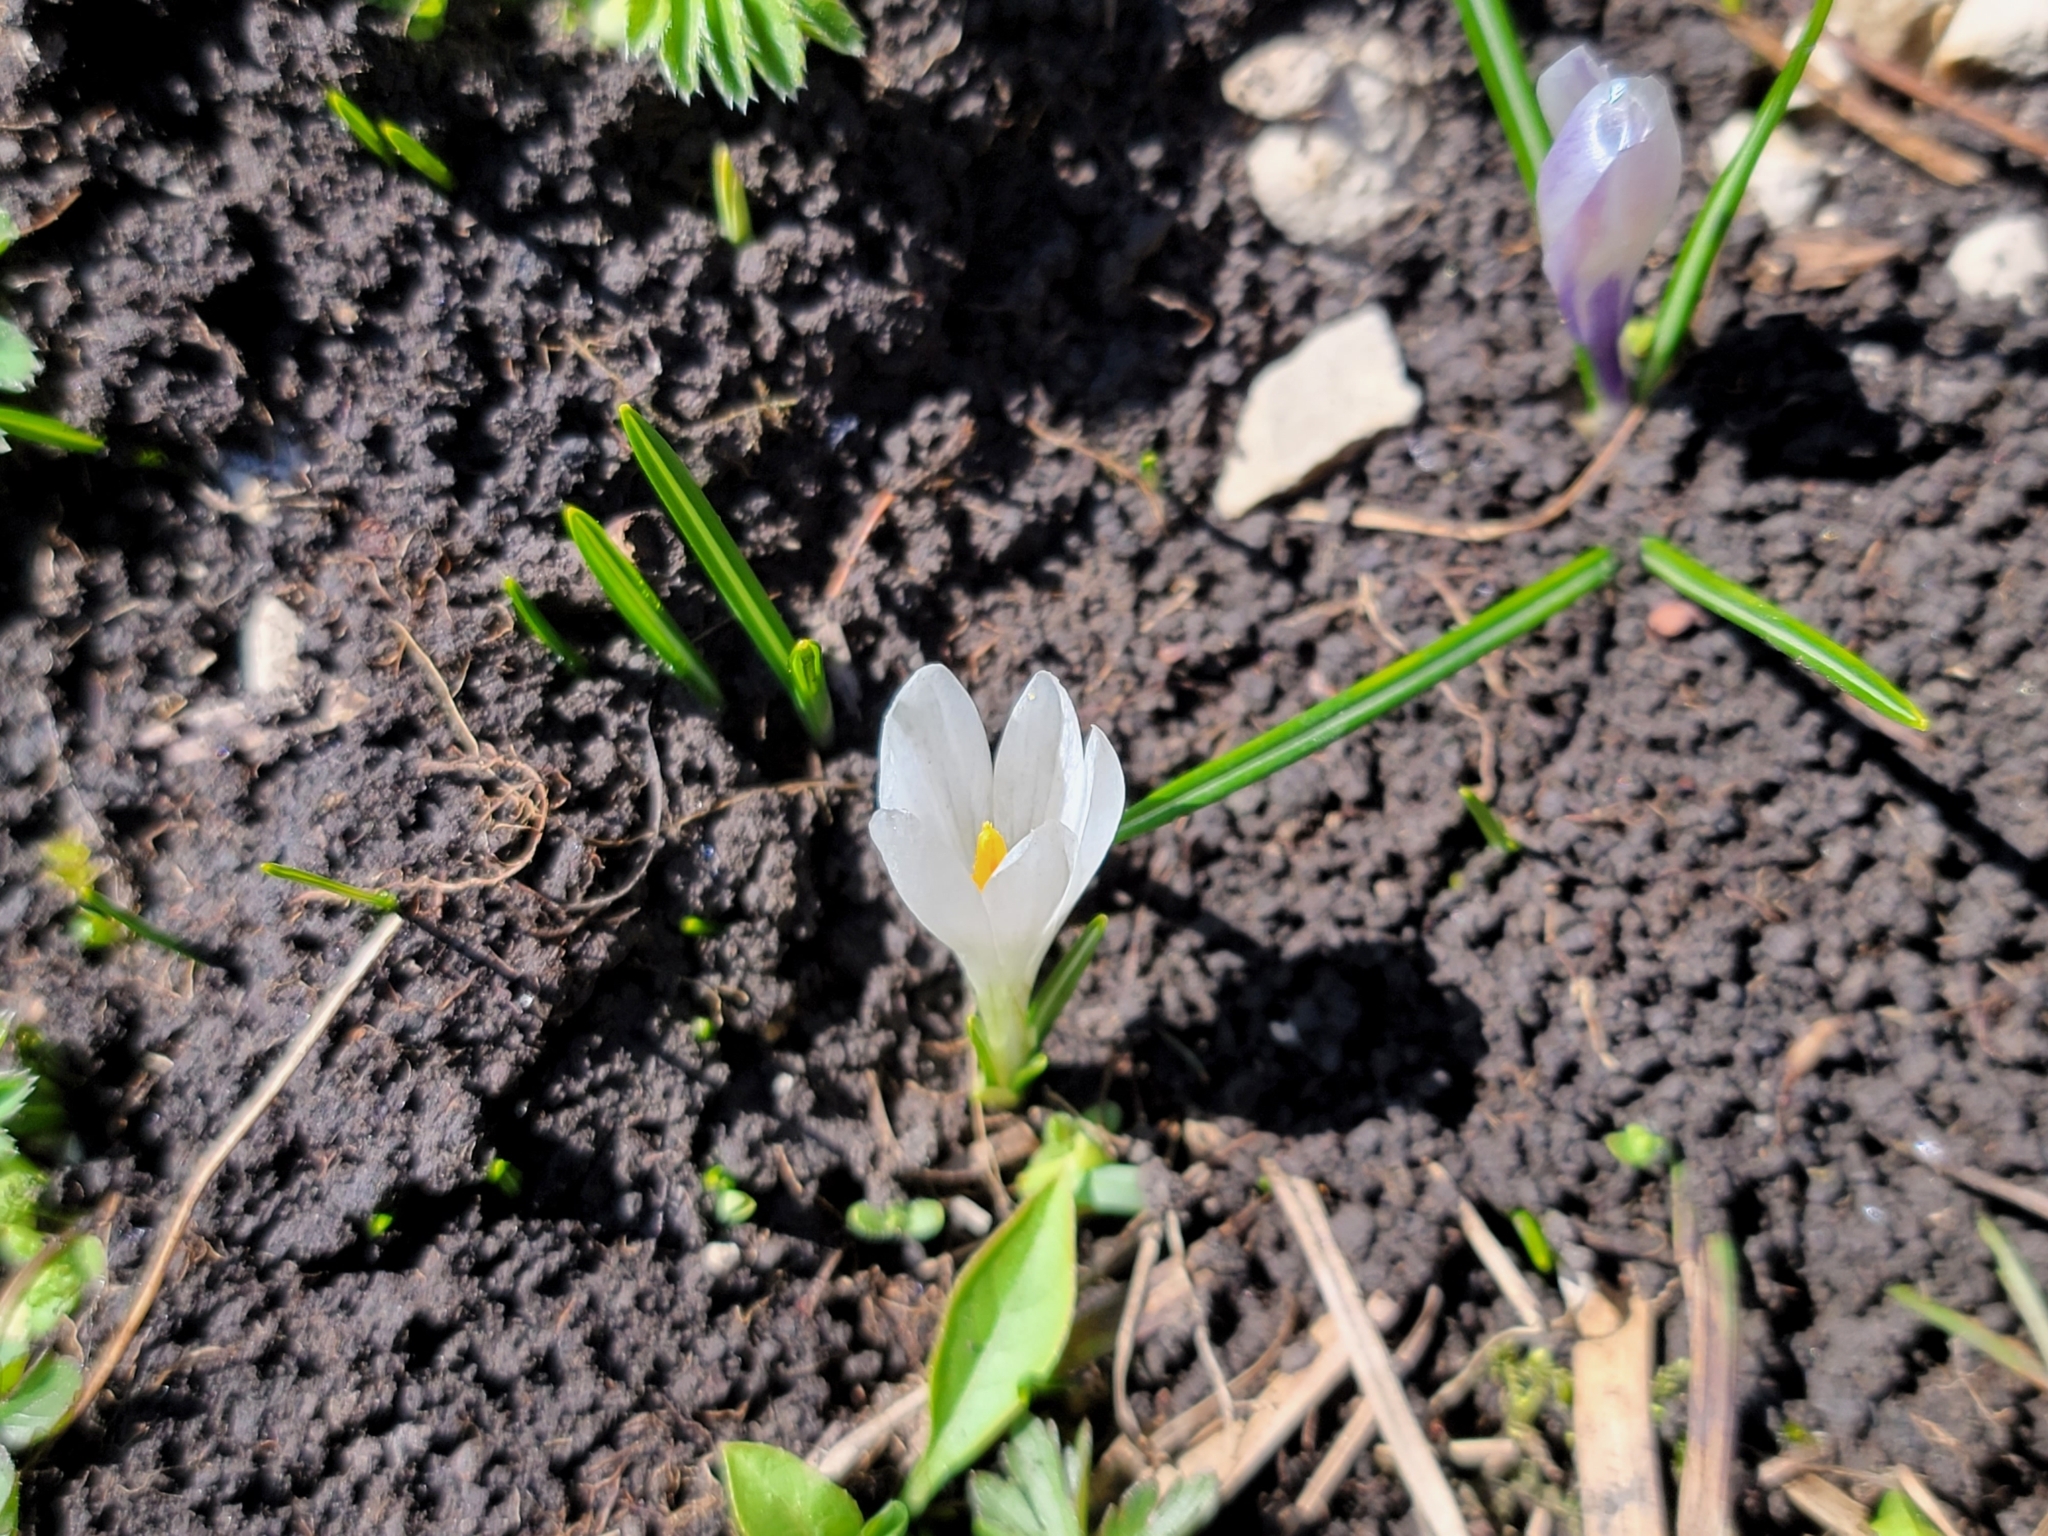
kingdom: Plantae
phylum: Tracheophyta
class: Liliopsida
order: Asparagales
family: Iridaceae
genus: Crocus
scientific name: Crocus vernus
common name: Spring crocus
